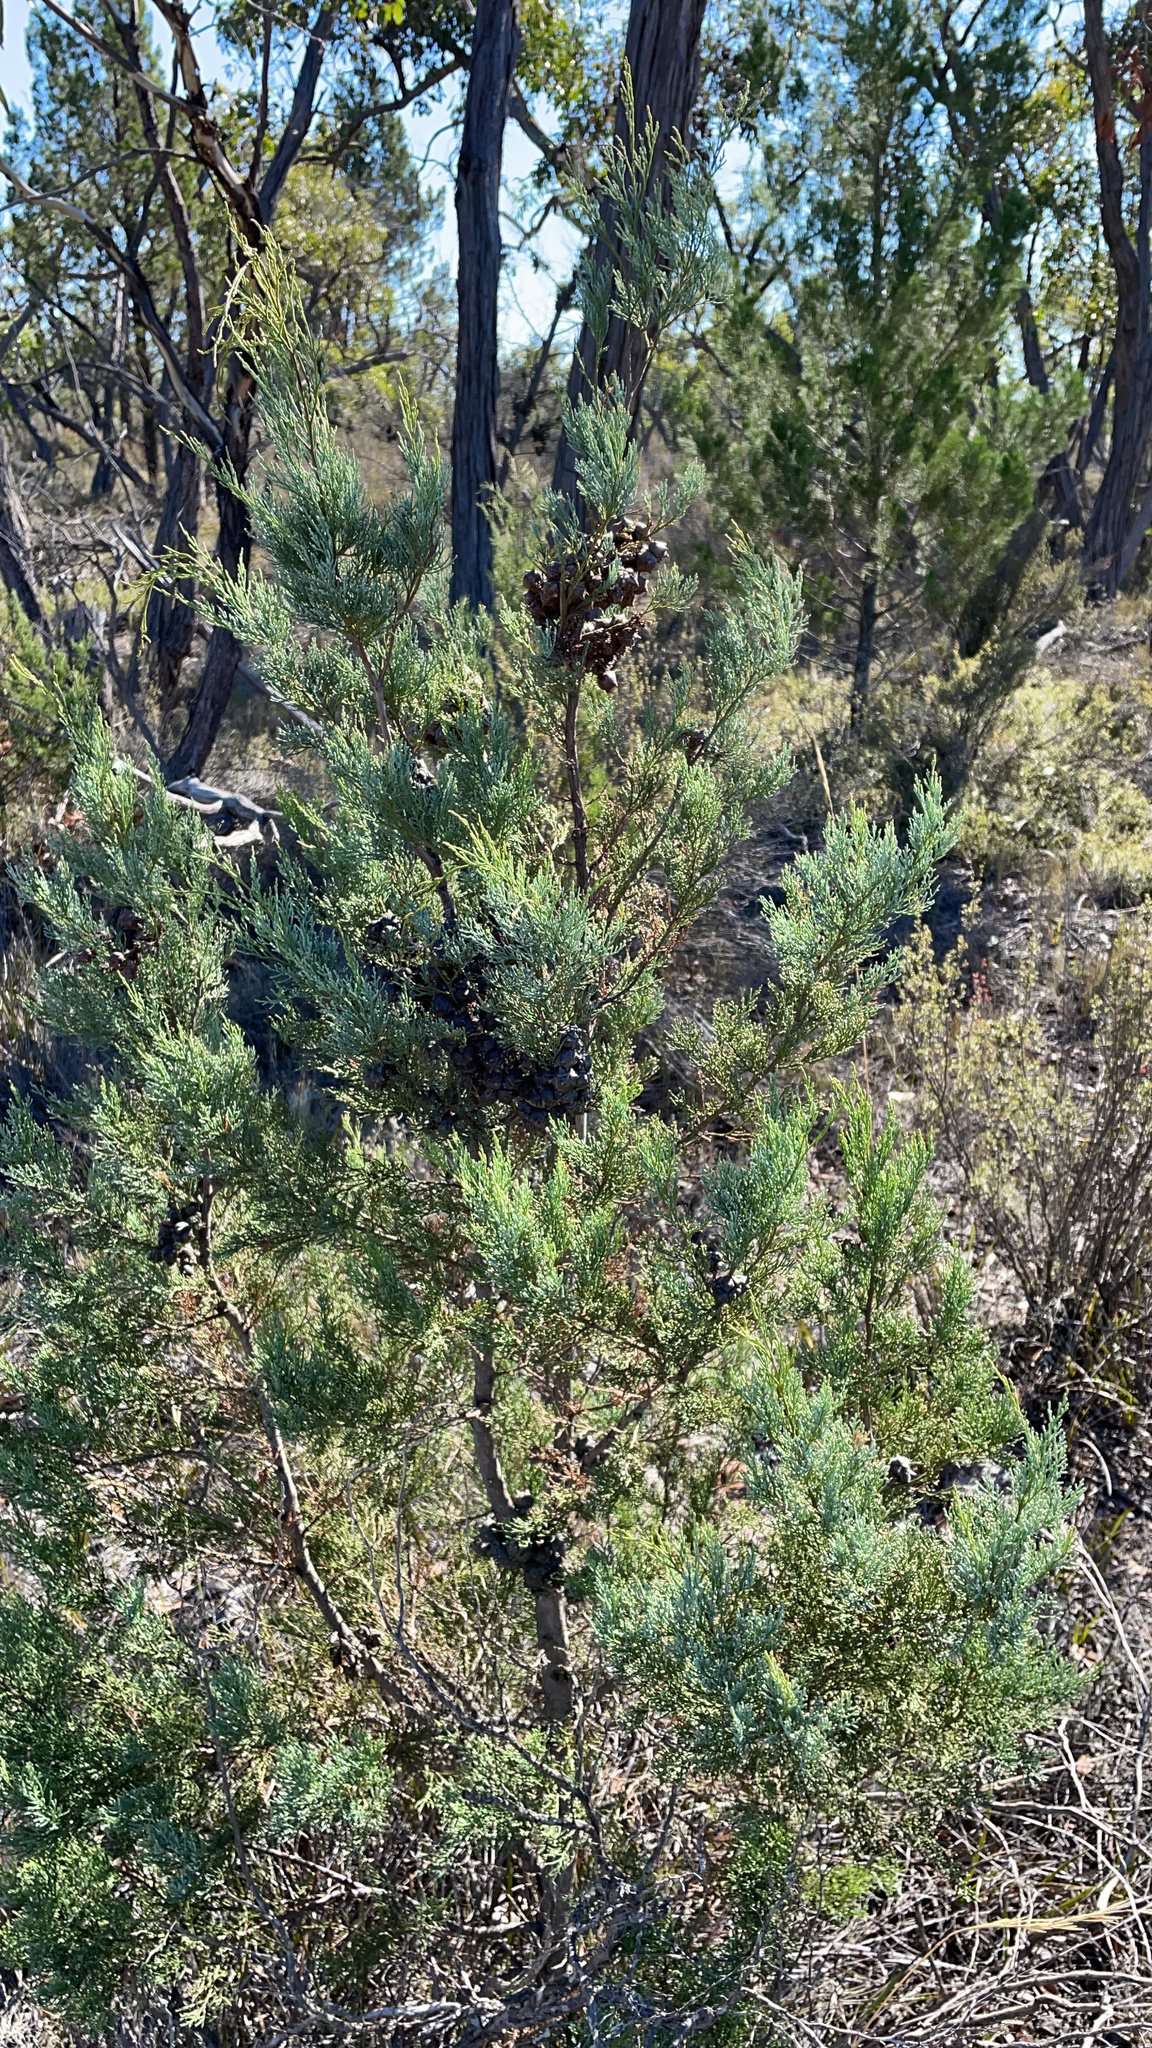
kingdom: Plantae
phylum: Tracheophyta
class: Pinopsida
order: Pinales
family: Cupressaceae
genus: Callitris
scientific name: Callitris rhomboidea
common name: Illawara mountain pine
